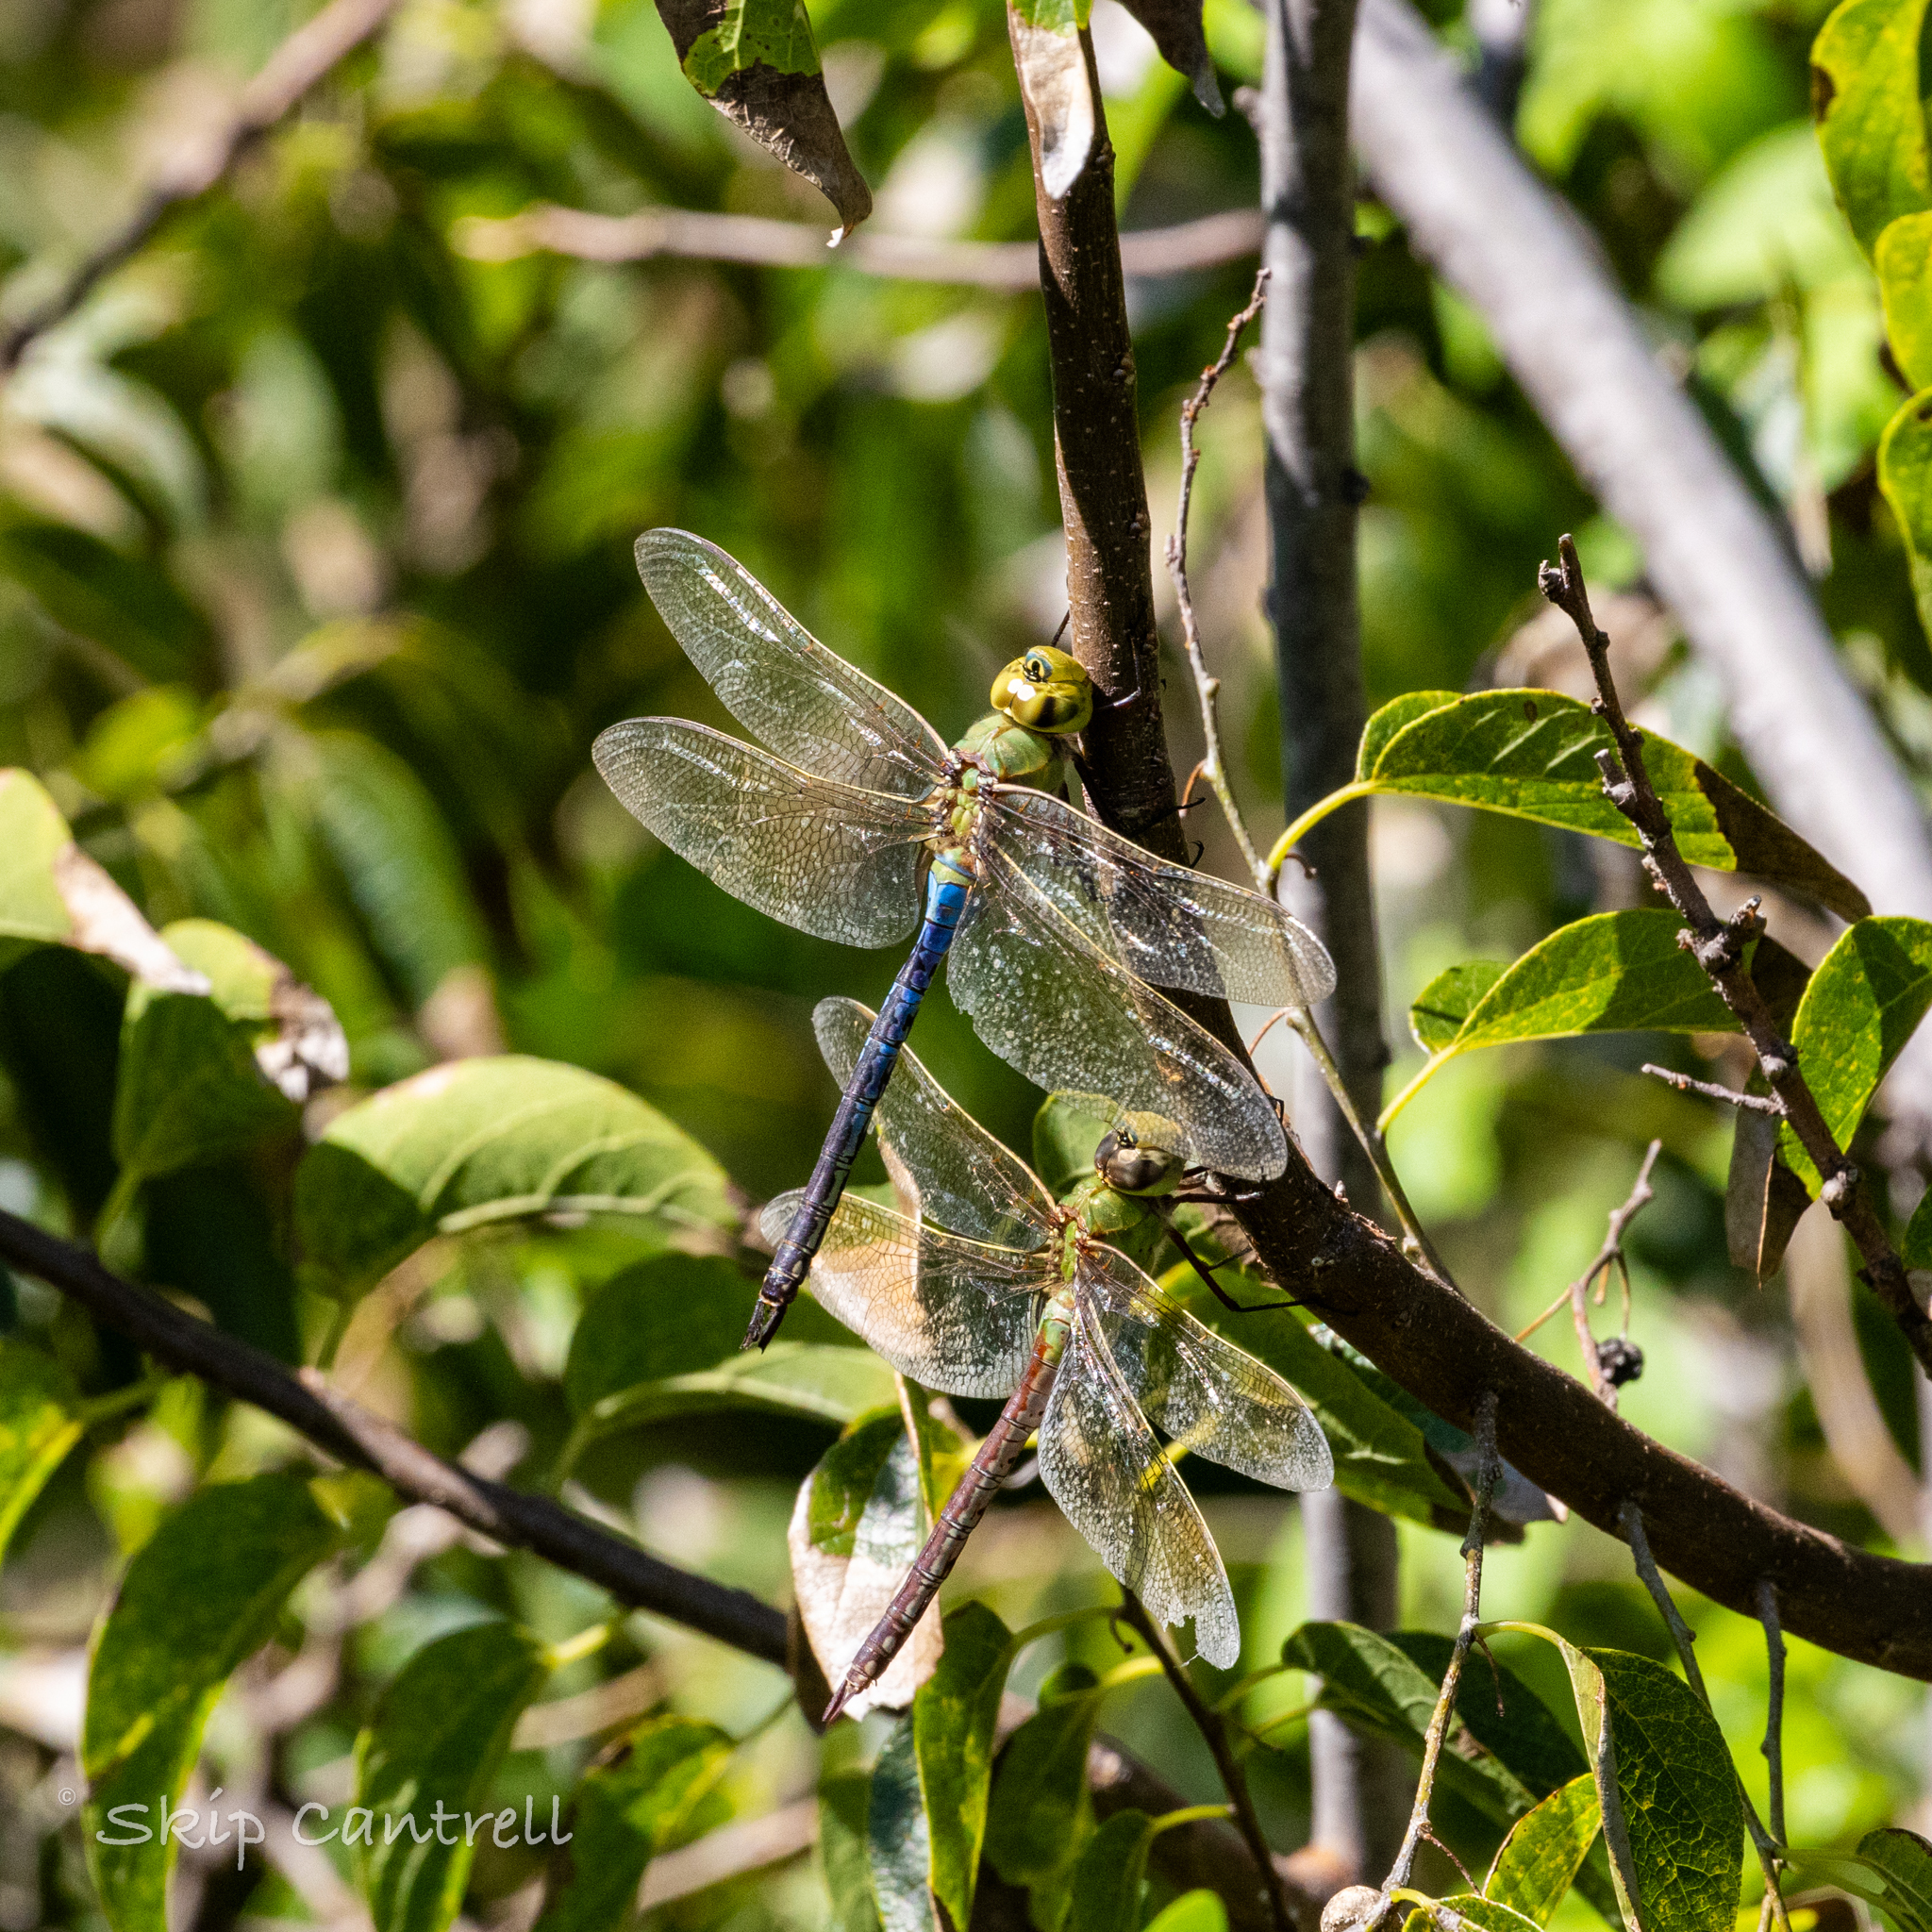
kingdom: Animalia
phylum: Arthropoda
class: Insecta
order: Odonata
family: Aeshnidae
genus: Anax
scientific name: Anax junius
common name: Common green darner
